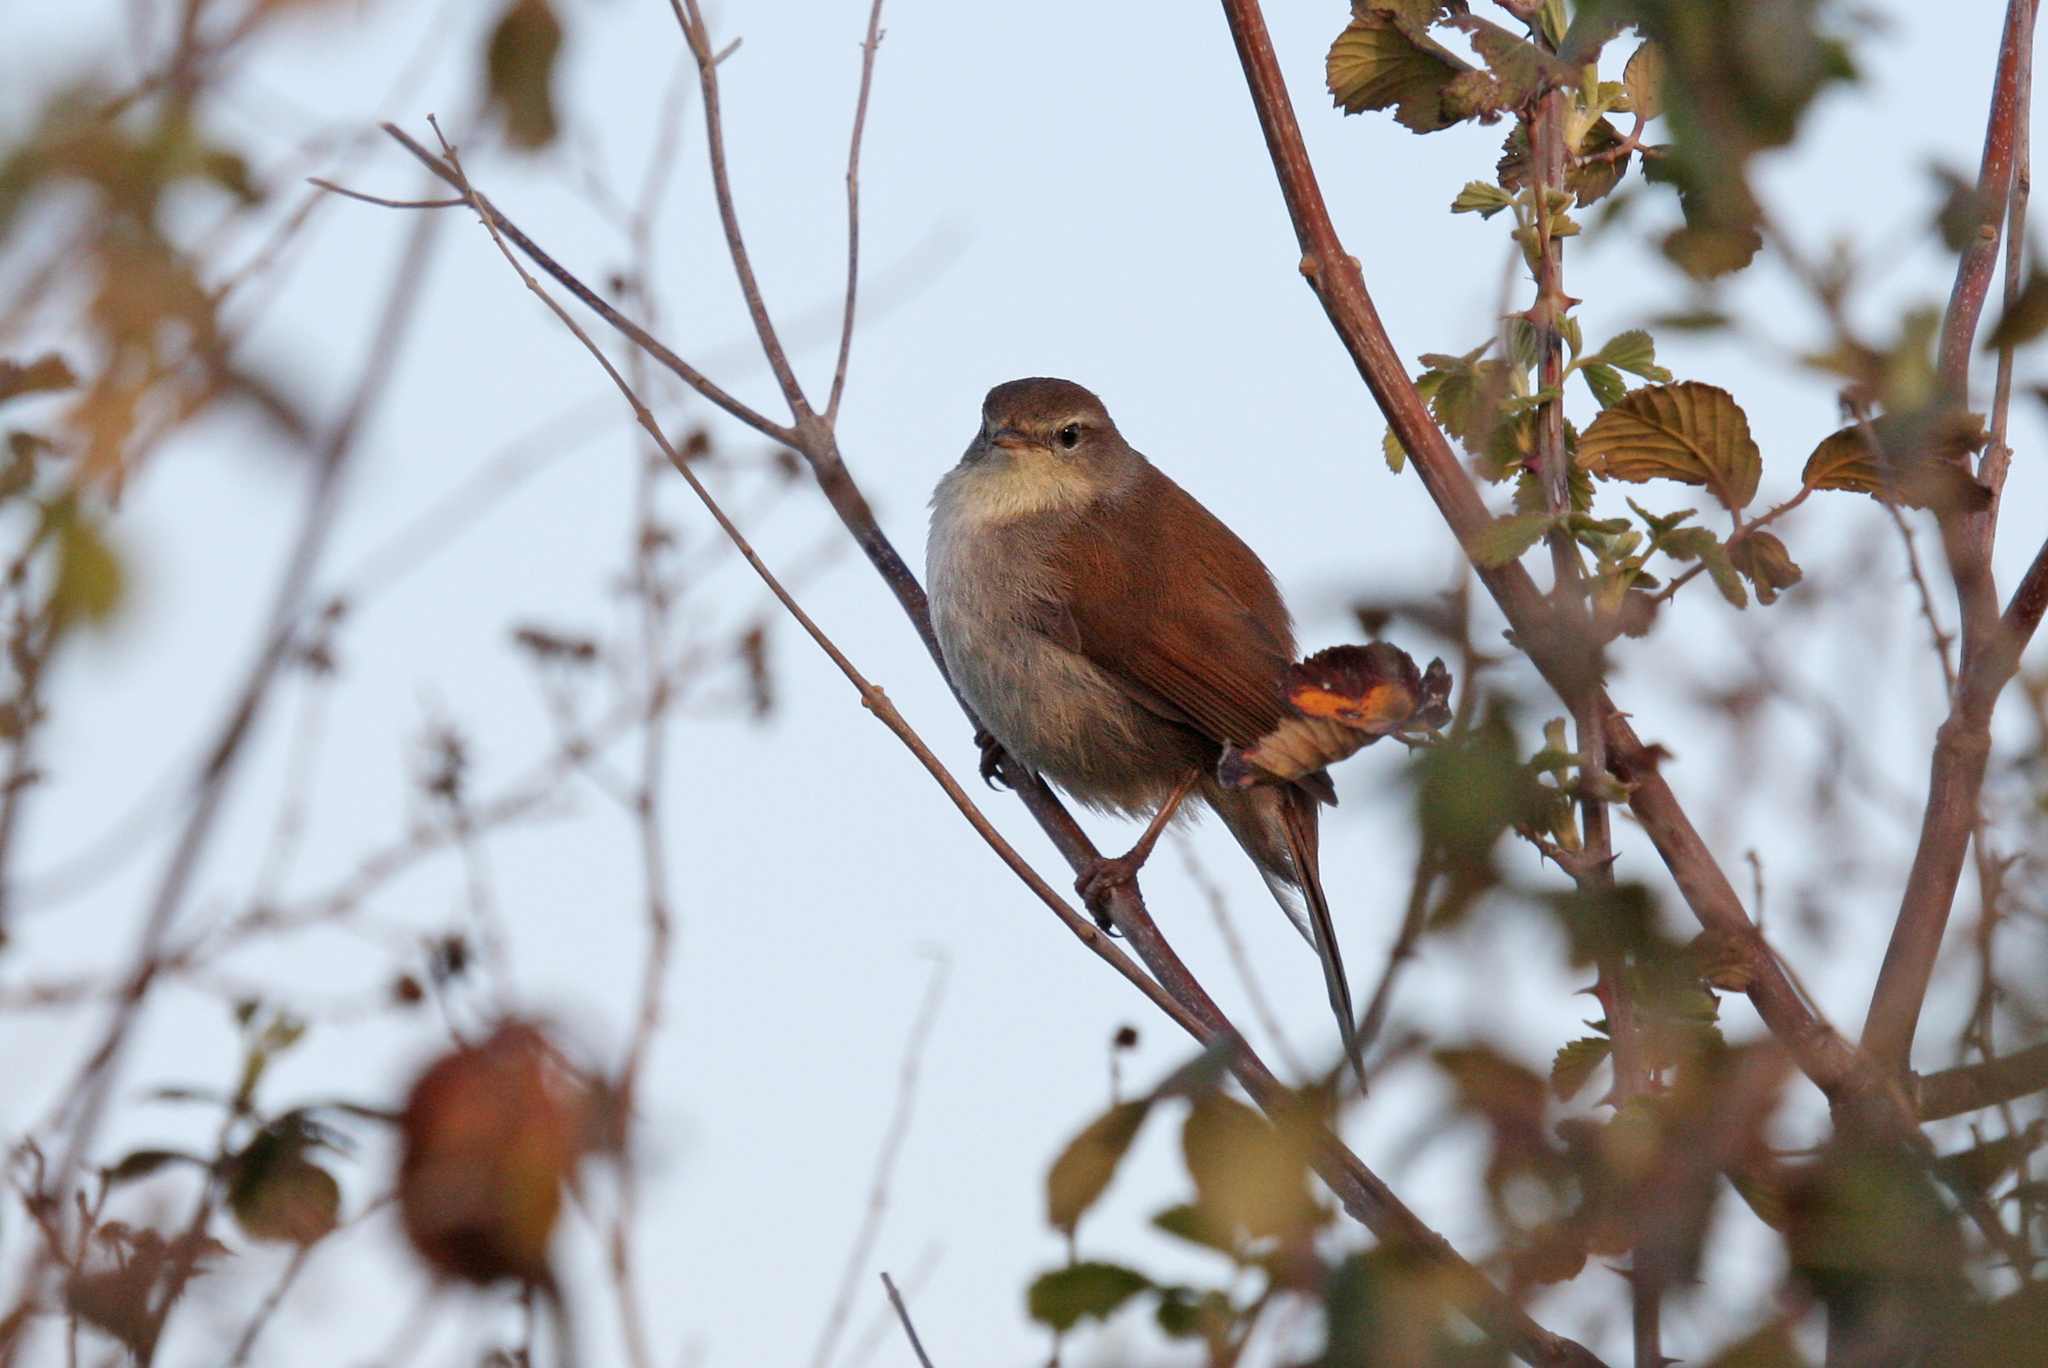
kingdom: Animalia
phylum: Chordata
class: Aves
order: Passeriformes
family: Cettiidae
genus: Cettia
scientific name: Cettia cetti
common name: Cetti's warbler
